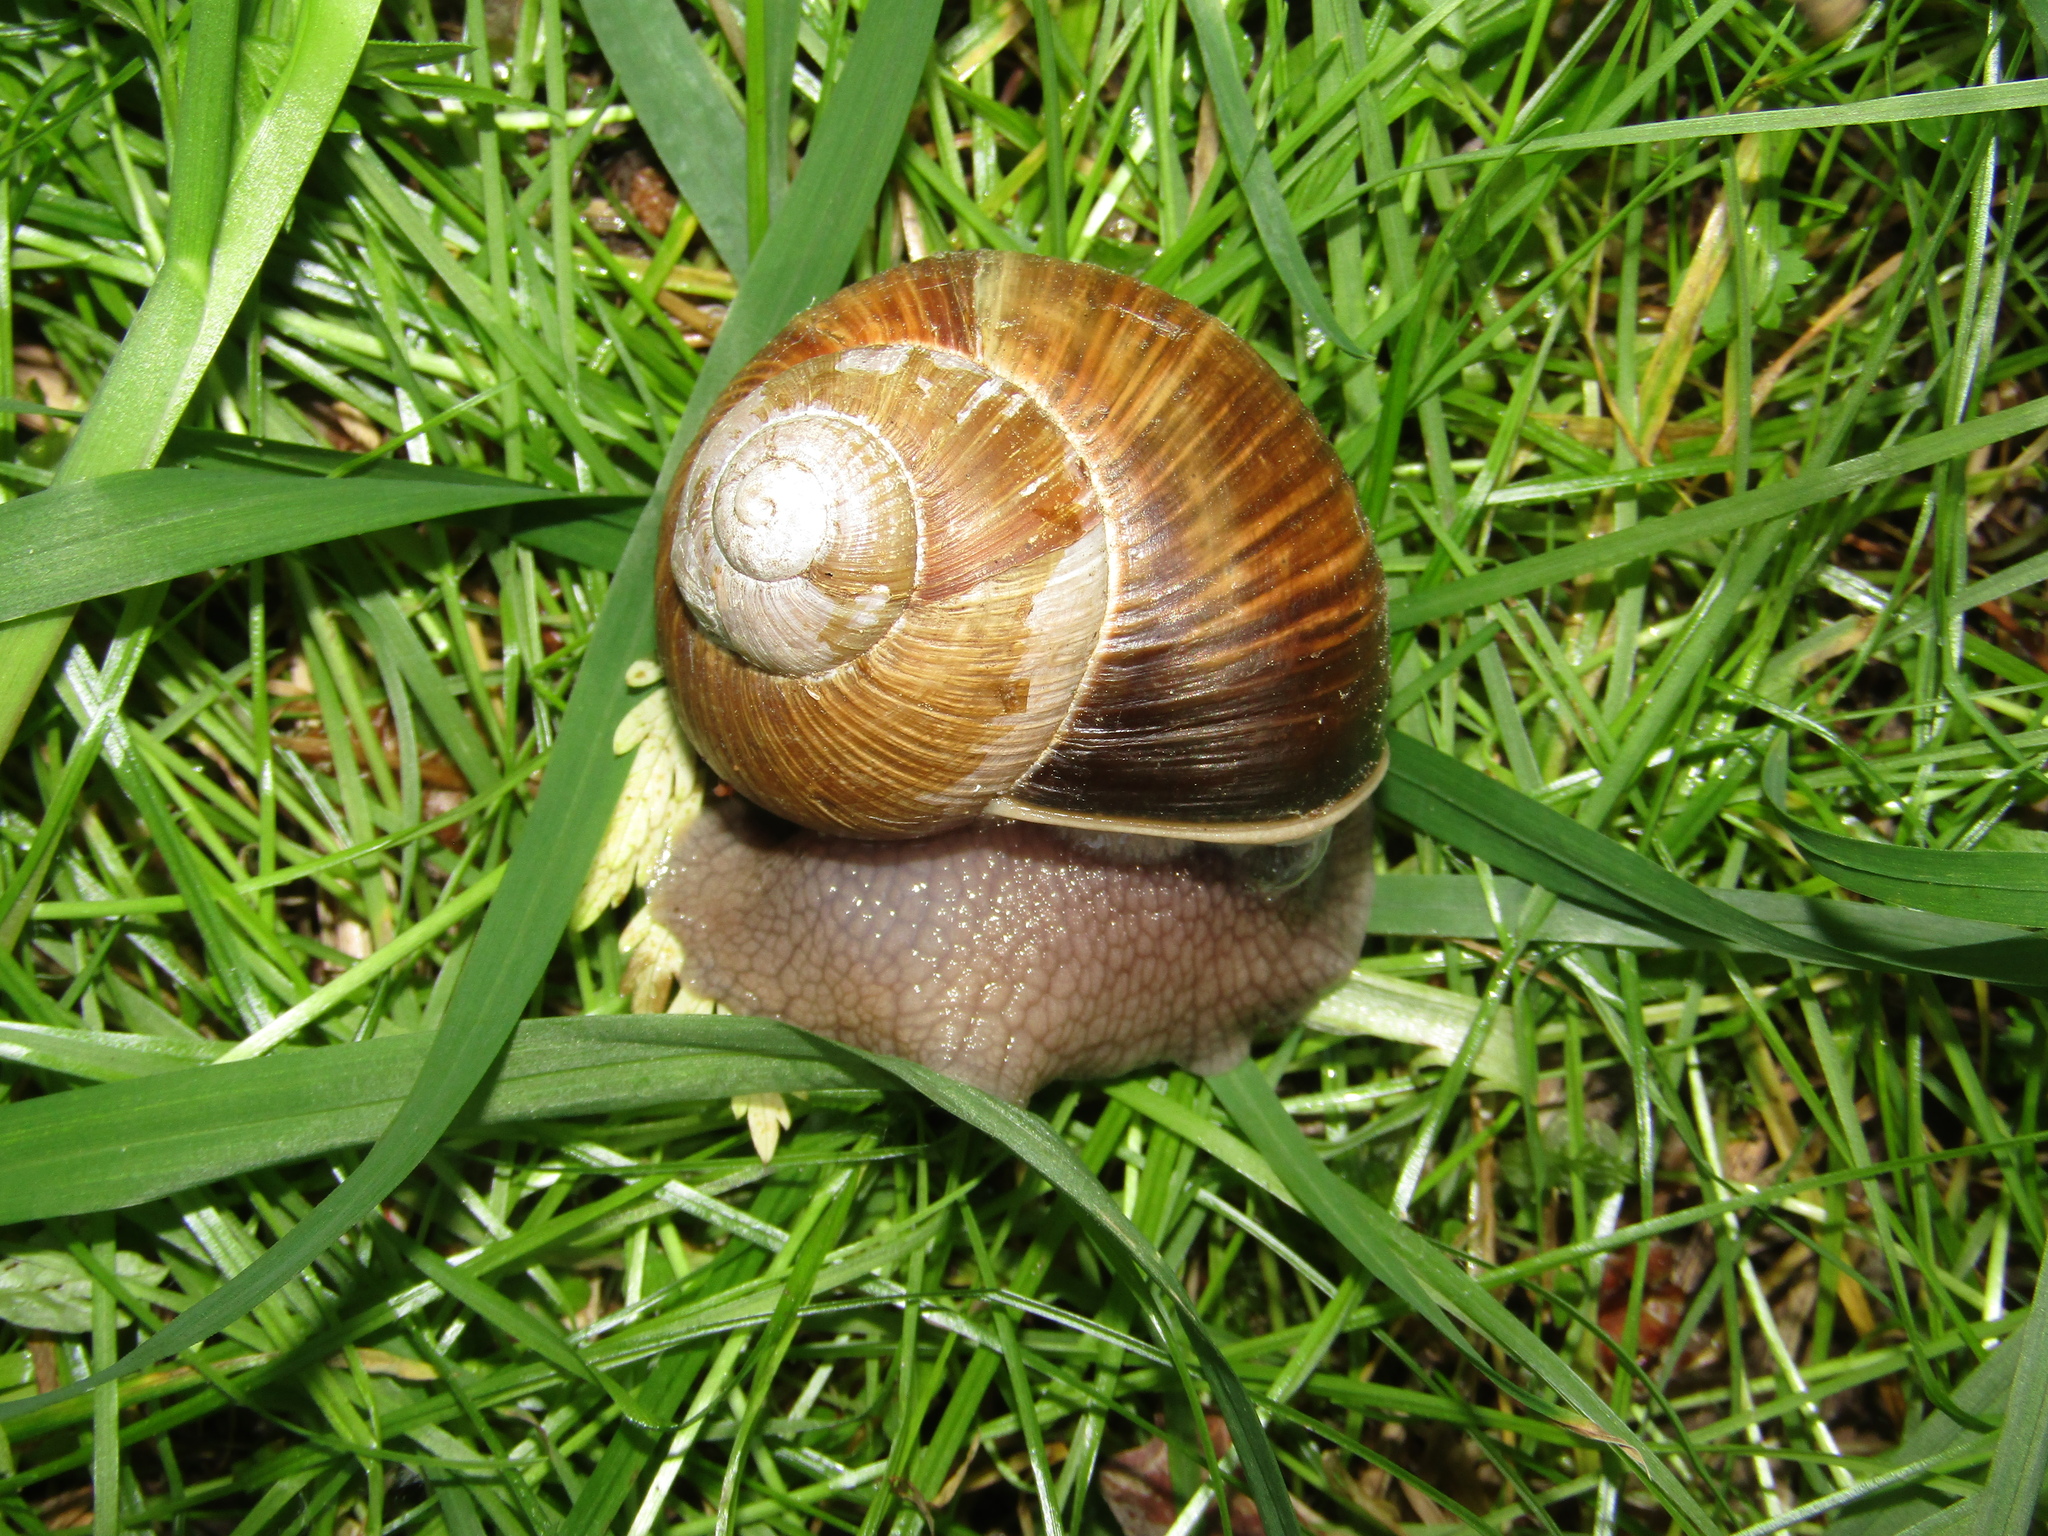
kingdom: Animalia
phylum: Mollusca
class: Gastropoda
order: Stylommatophora
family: Helicidae
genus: Helix
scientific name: Helix pomatia
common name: Roman snail
